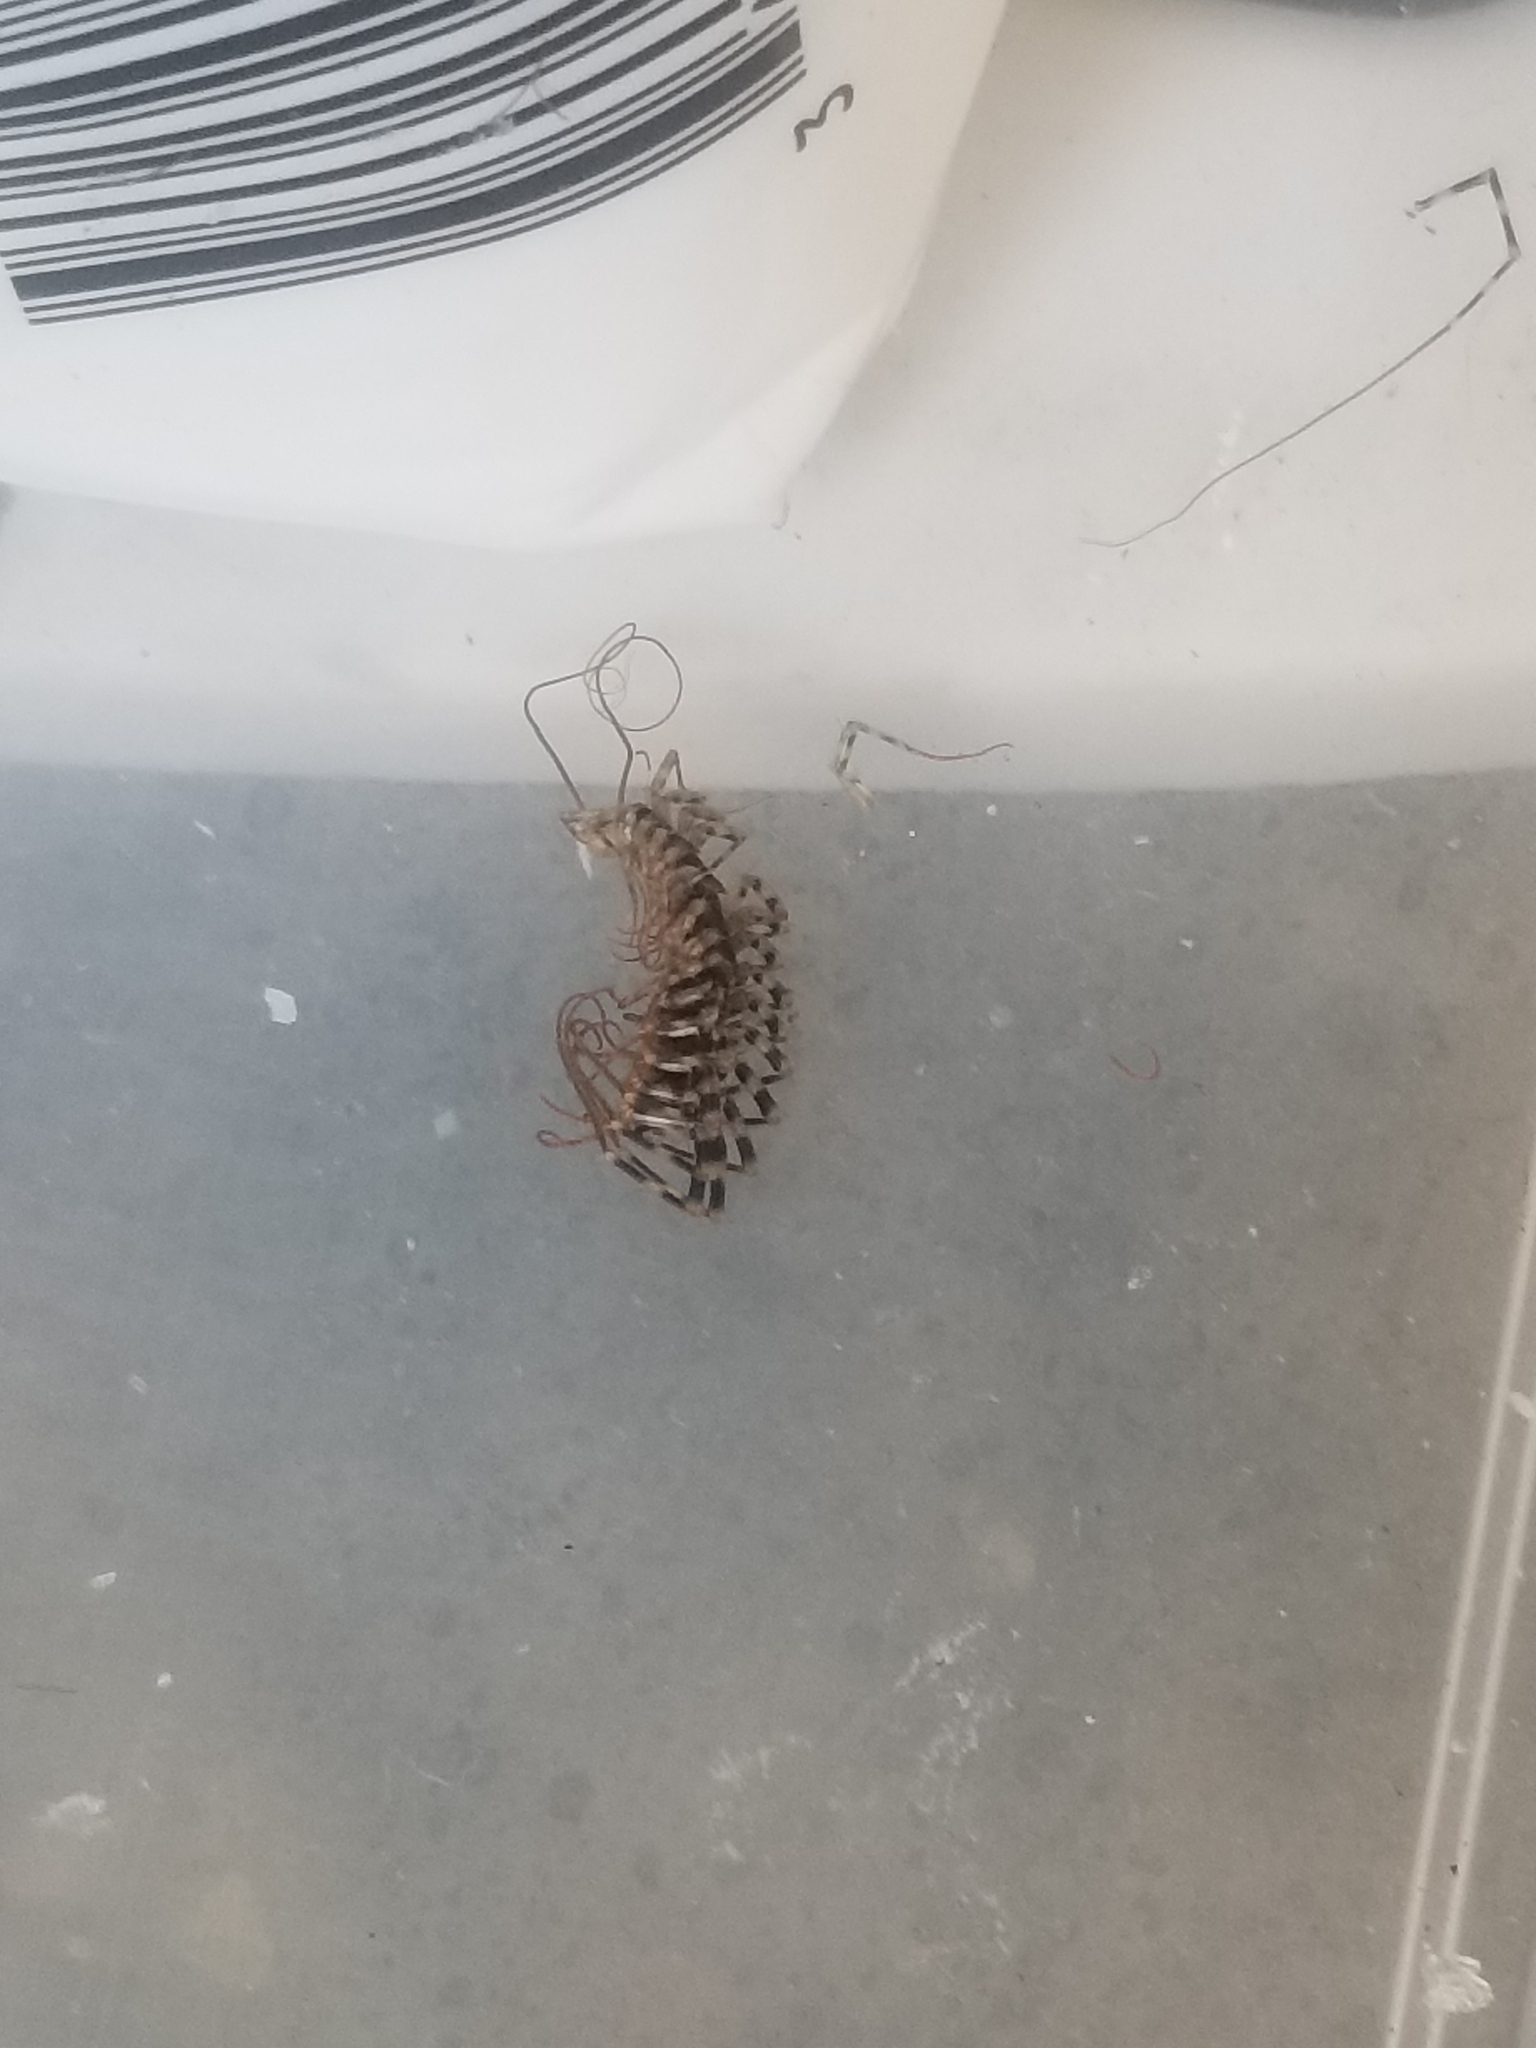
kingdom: Animalia
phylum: Arthropoda
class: Chilopoda
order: Scutigeromorpha
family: Scutigeridae
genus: Scutigera
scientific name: Scutigera coleoptrata
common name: House centipede
